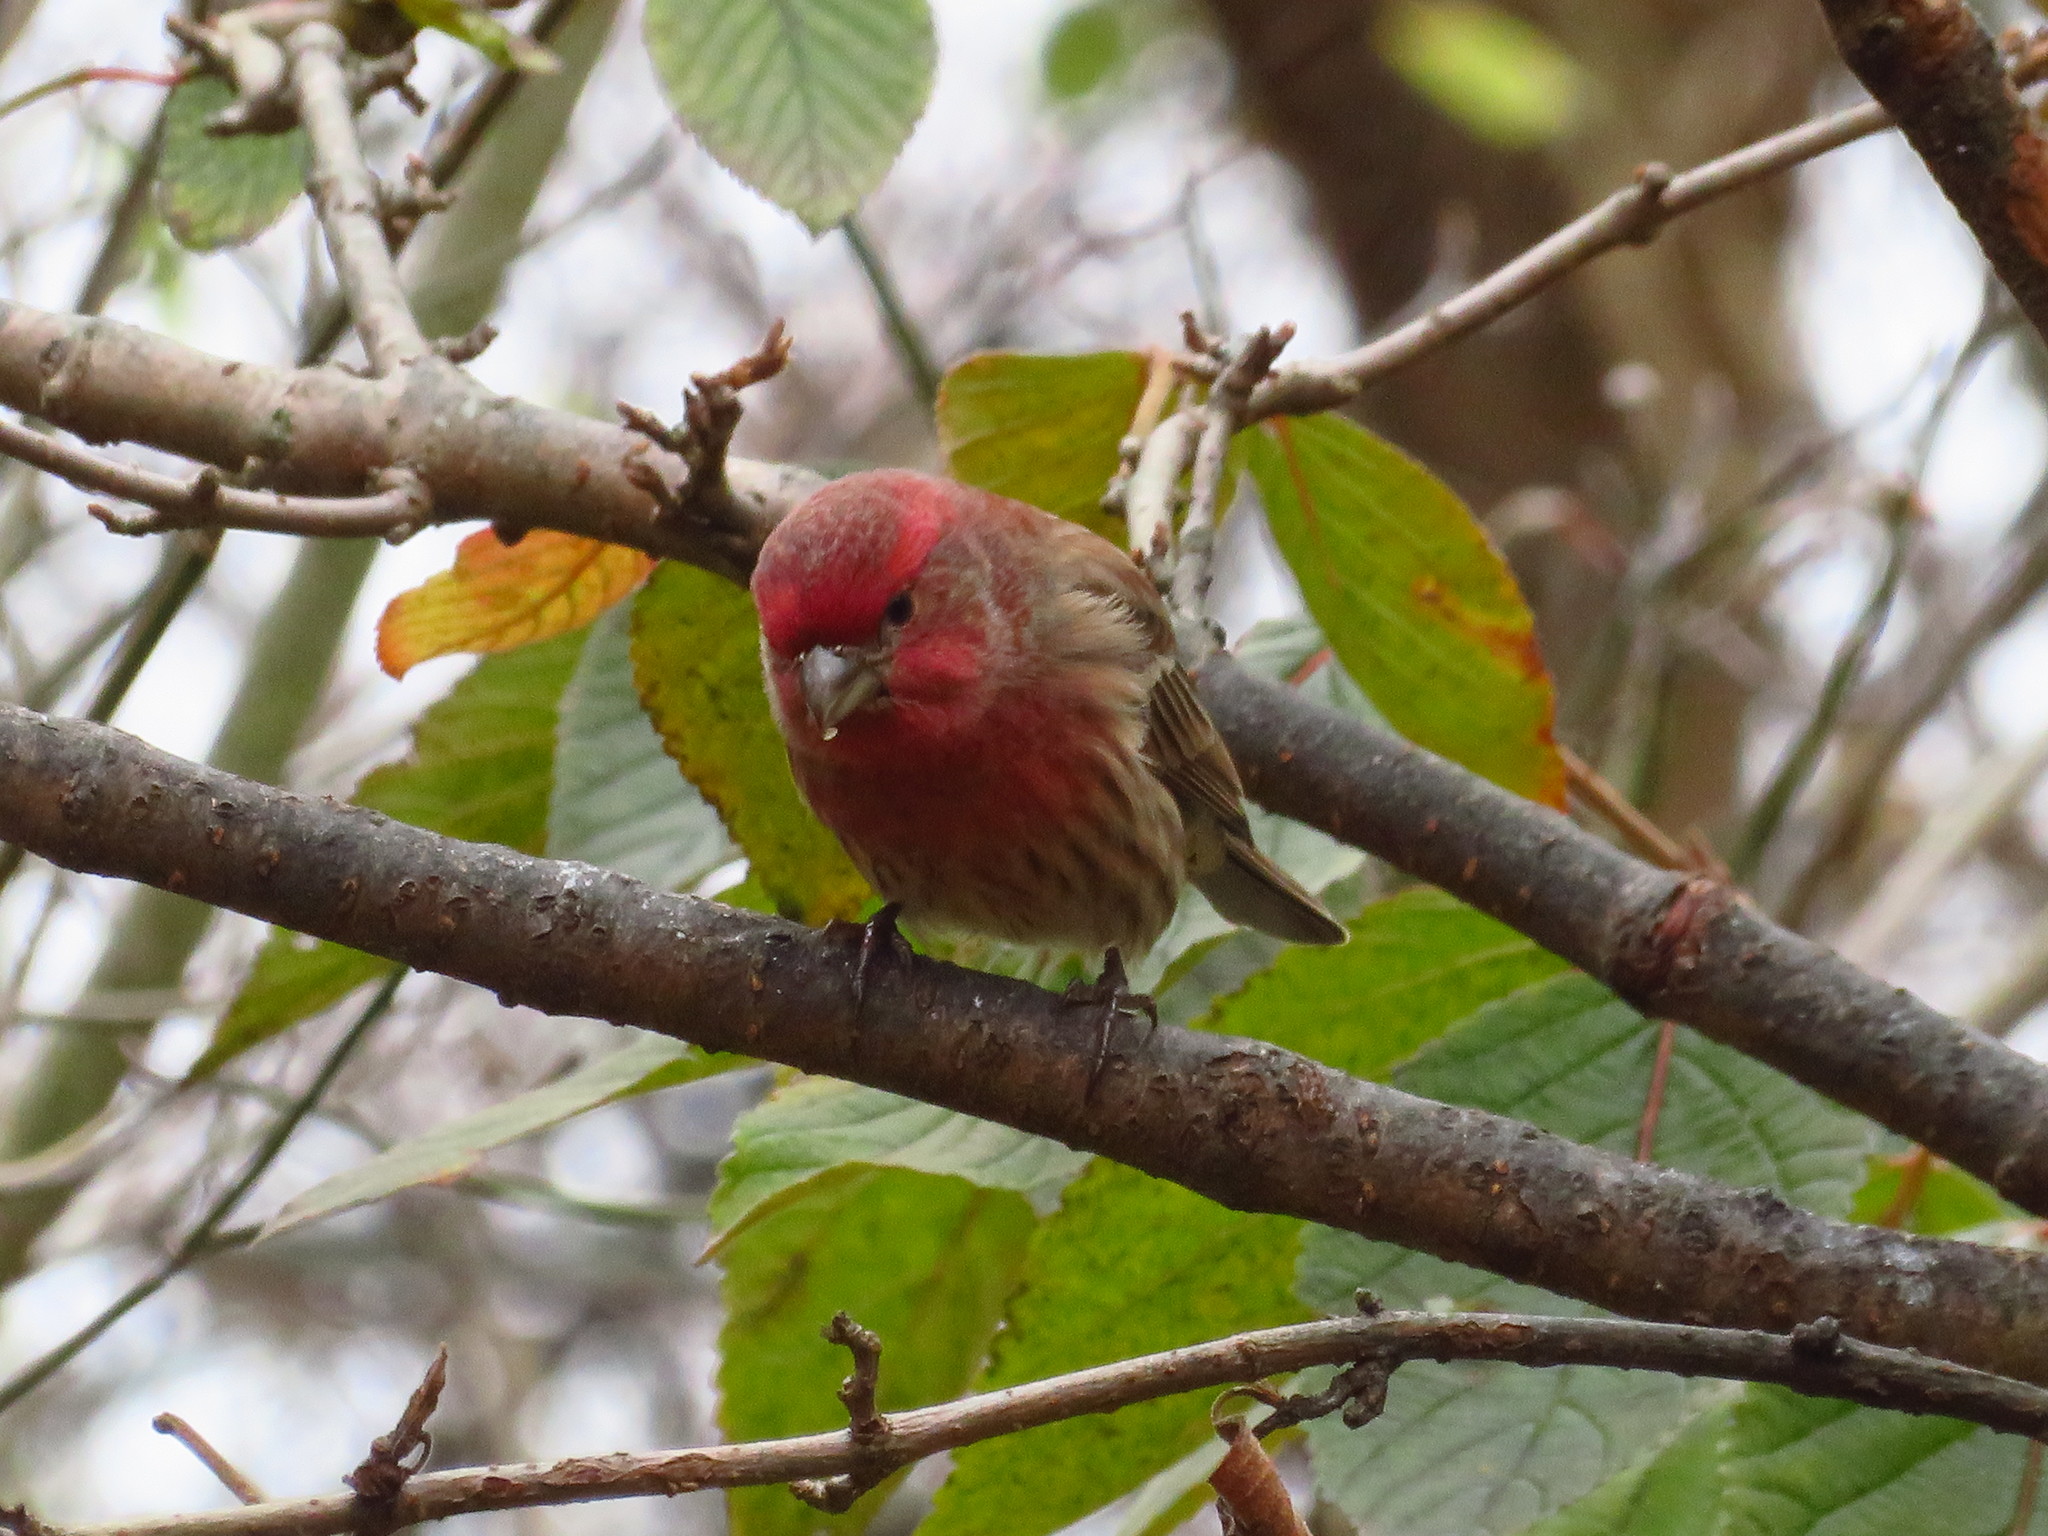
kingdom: Animalia
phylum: Chordata
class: Aves
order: Passeriformes
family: Fringillidae
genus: Haemorhous
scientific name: Haemorhous mexicanus
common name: House finch
